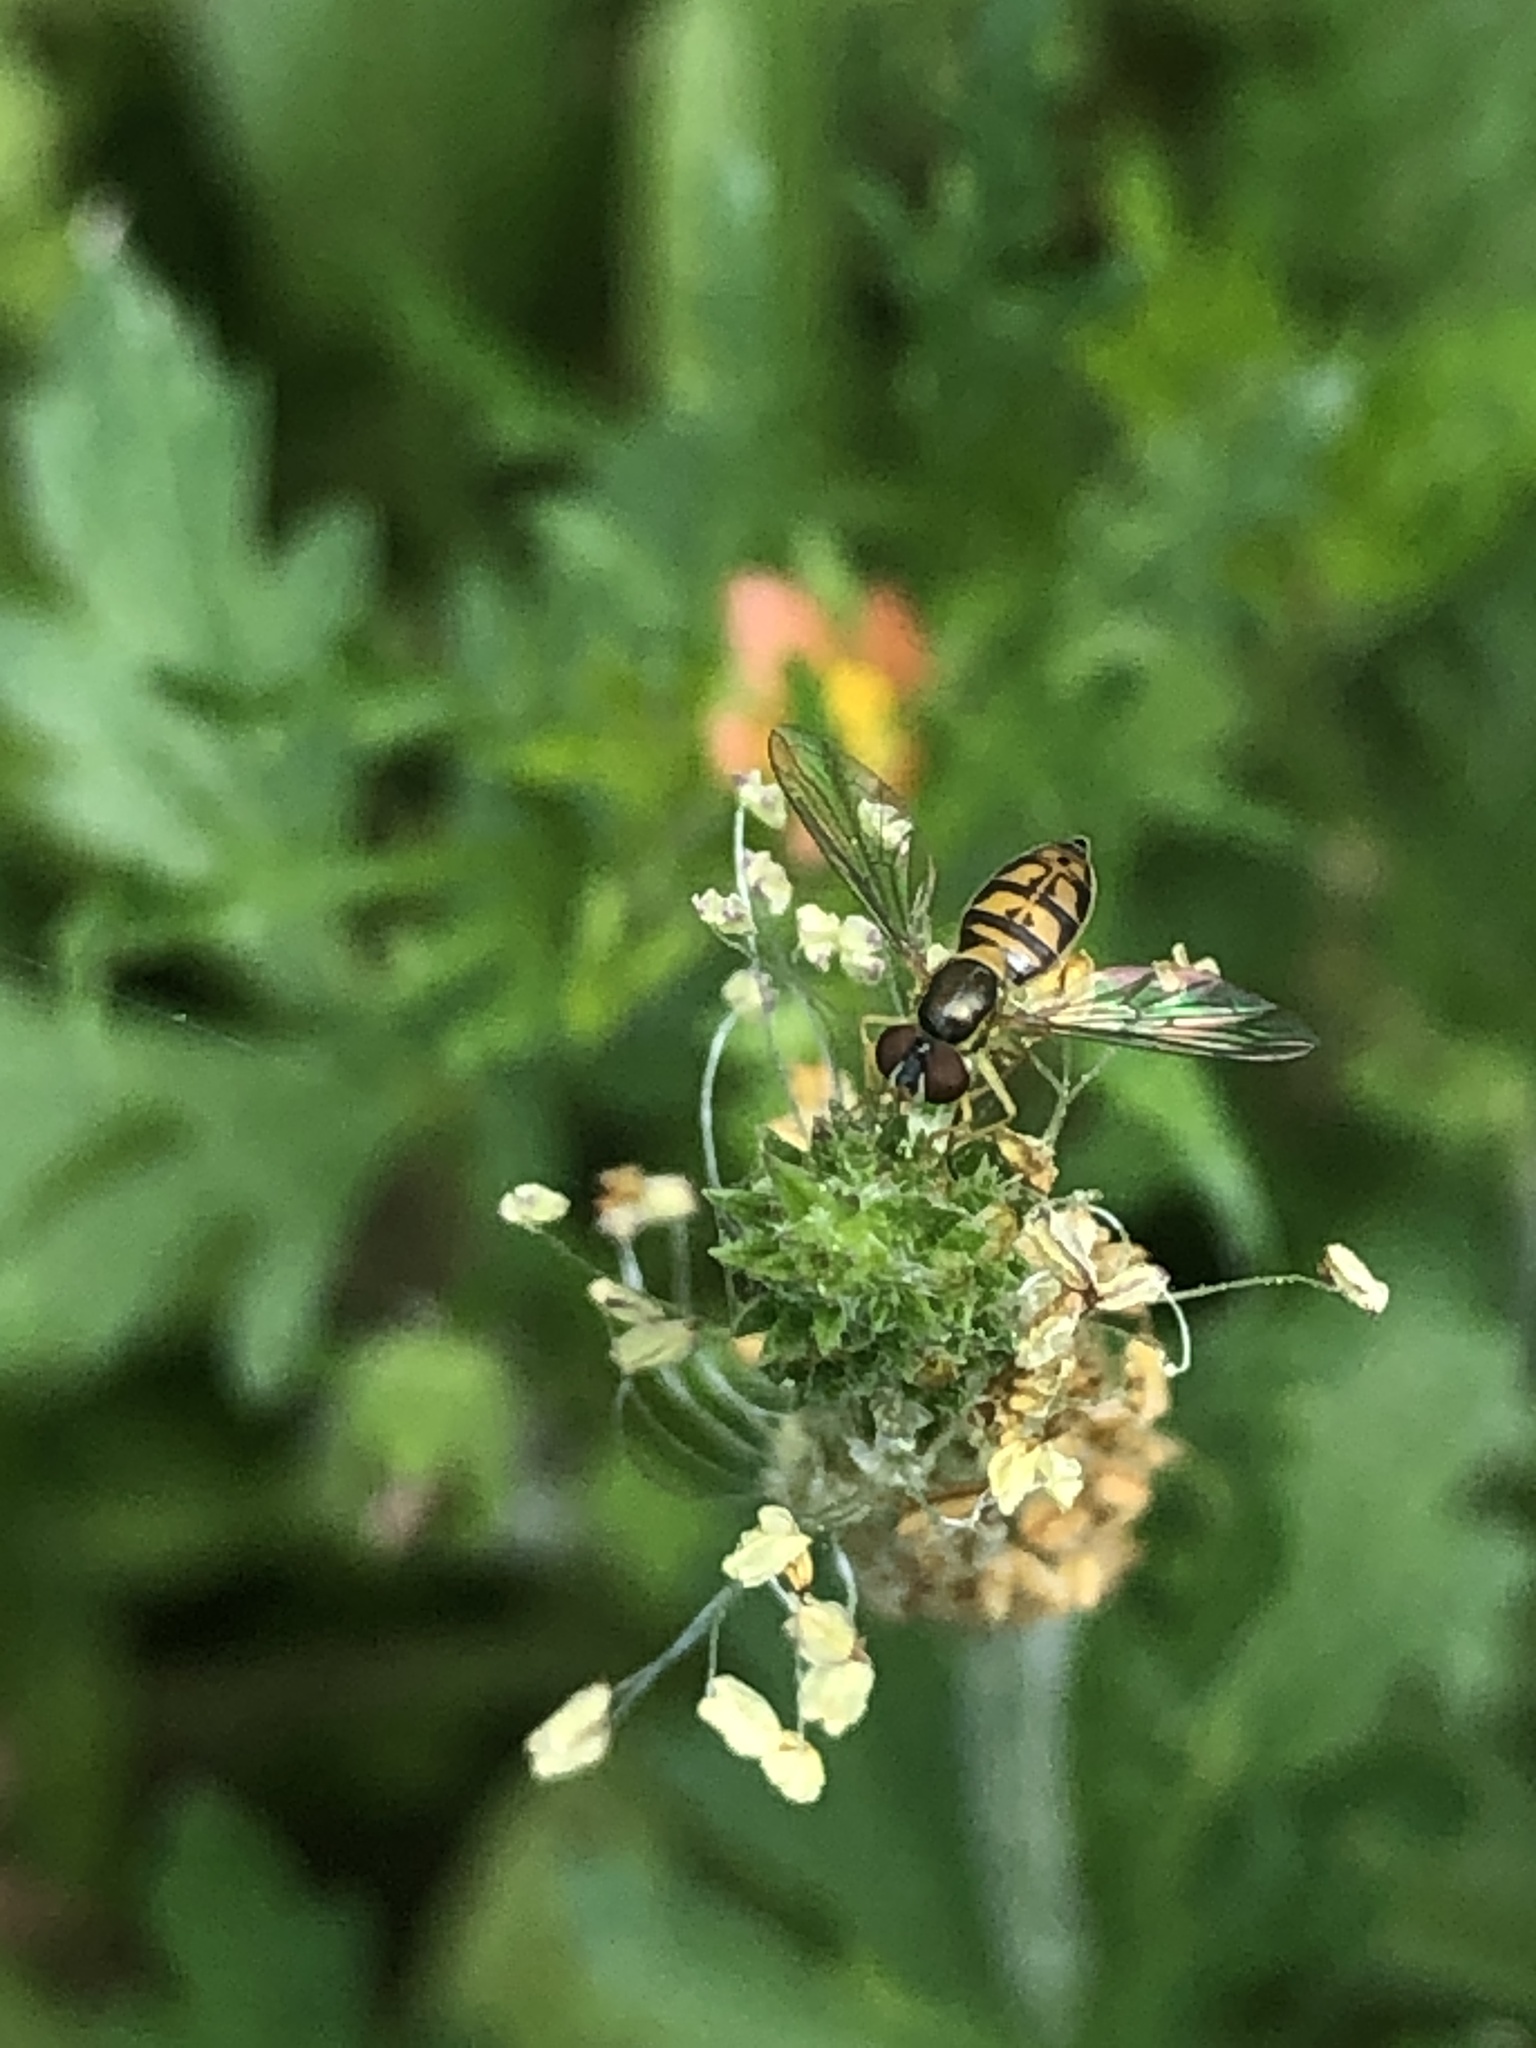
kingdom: Animalia
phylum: Arthropoda
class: Insecta
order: Diptera
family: Syrphidae
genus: Toxomerus
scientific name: Toxomerus marginatus
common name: Syrphid fly
